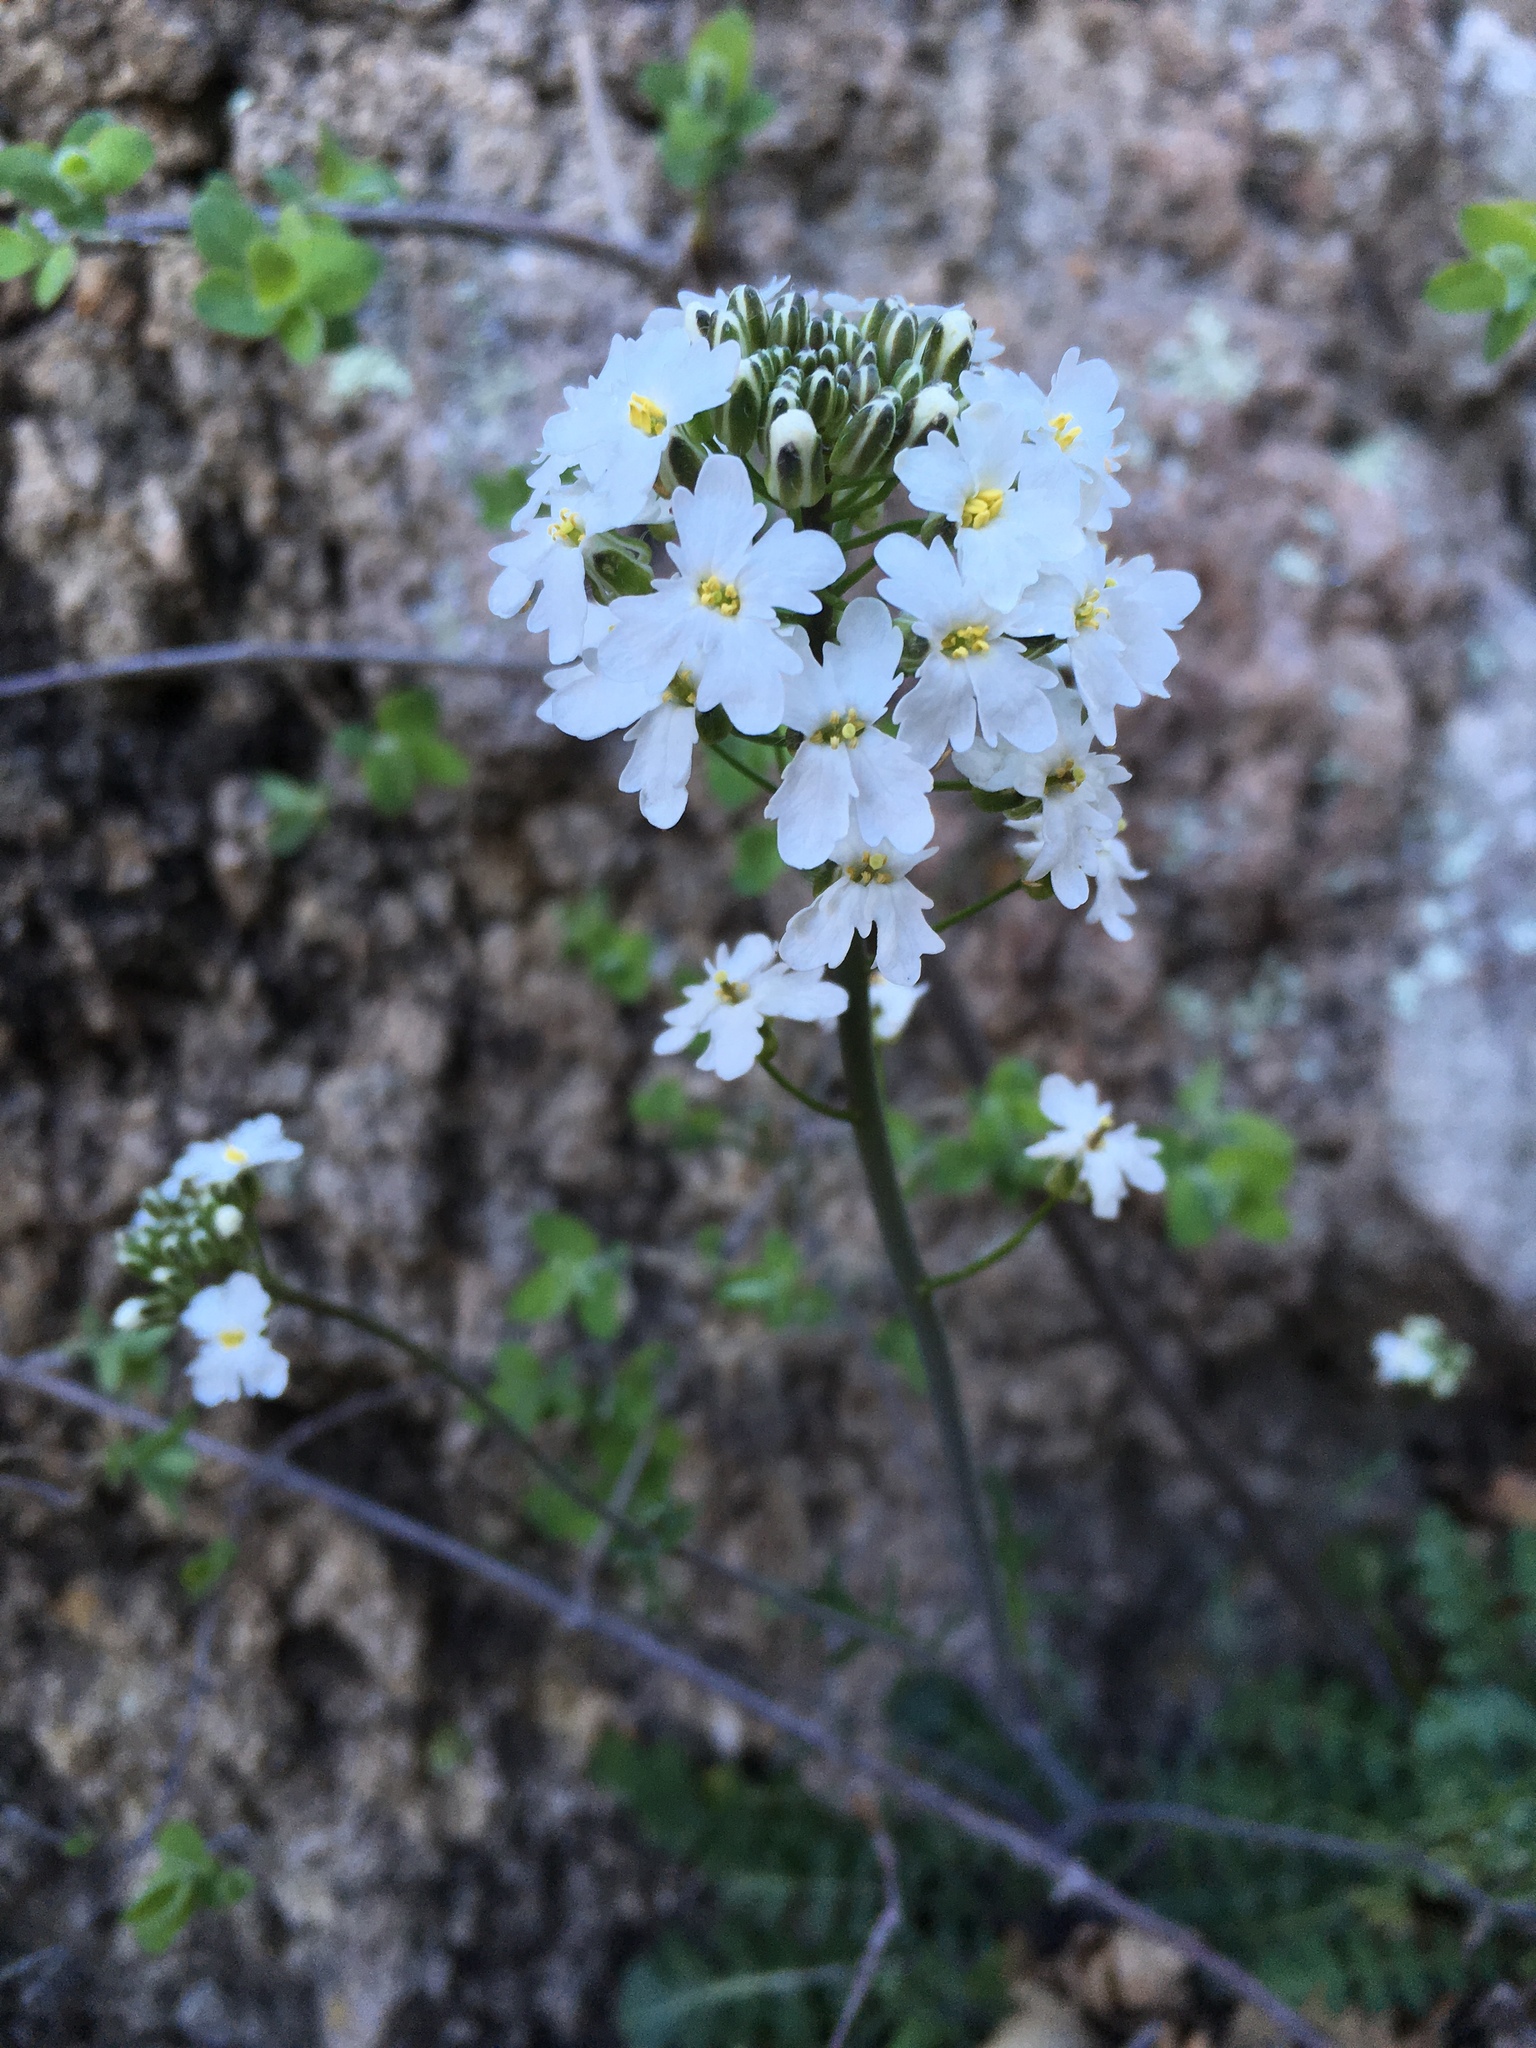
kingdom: Plantae
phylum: Tracheophyta
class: Magnoliopsida
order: Brassicales
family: Brassicaceae
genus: Dryopetalon
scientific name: Dryopetalon runcinatum
